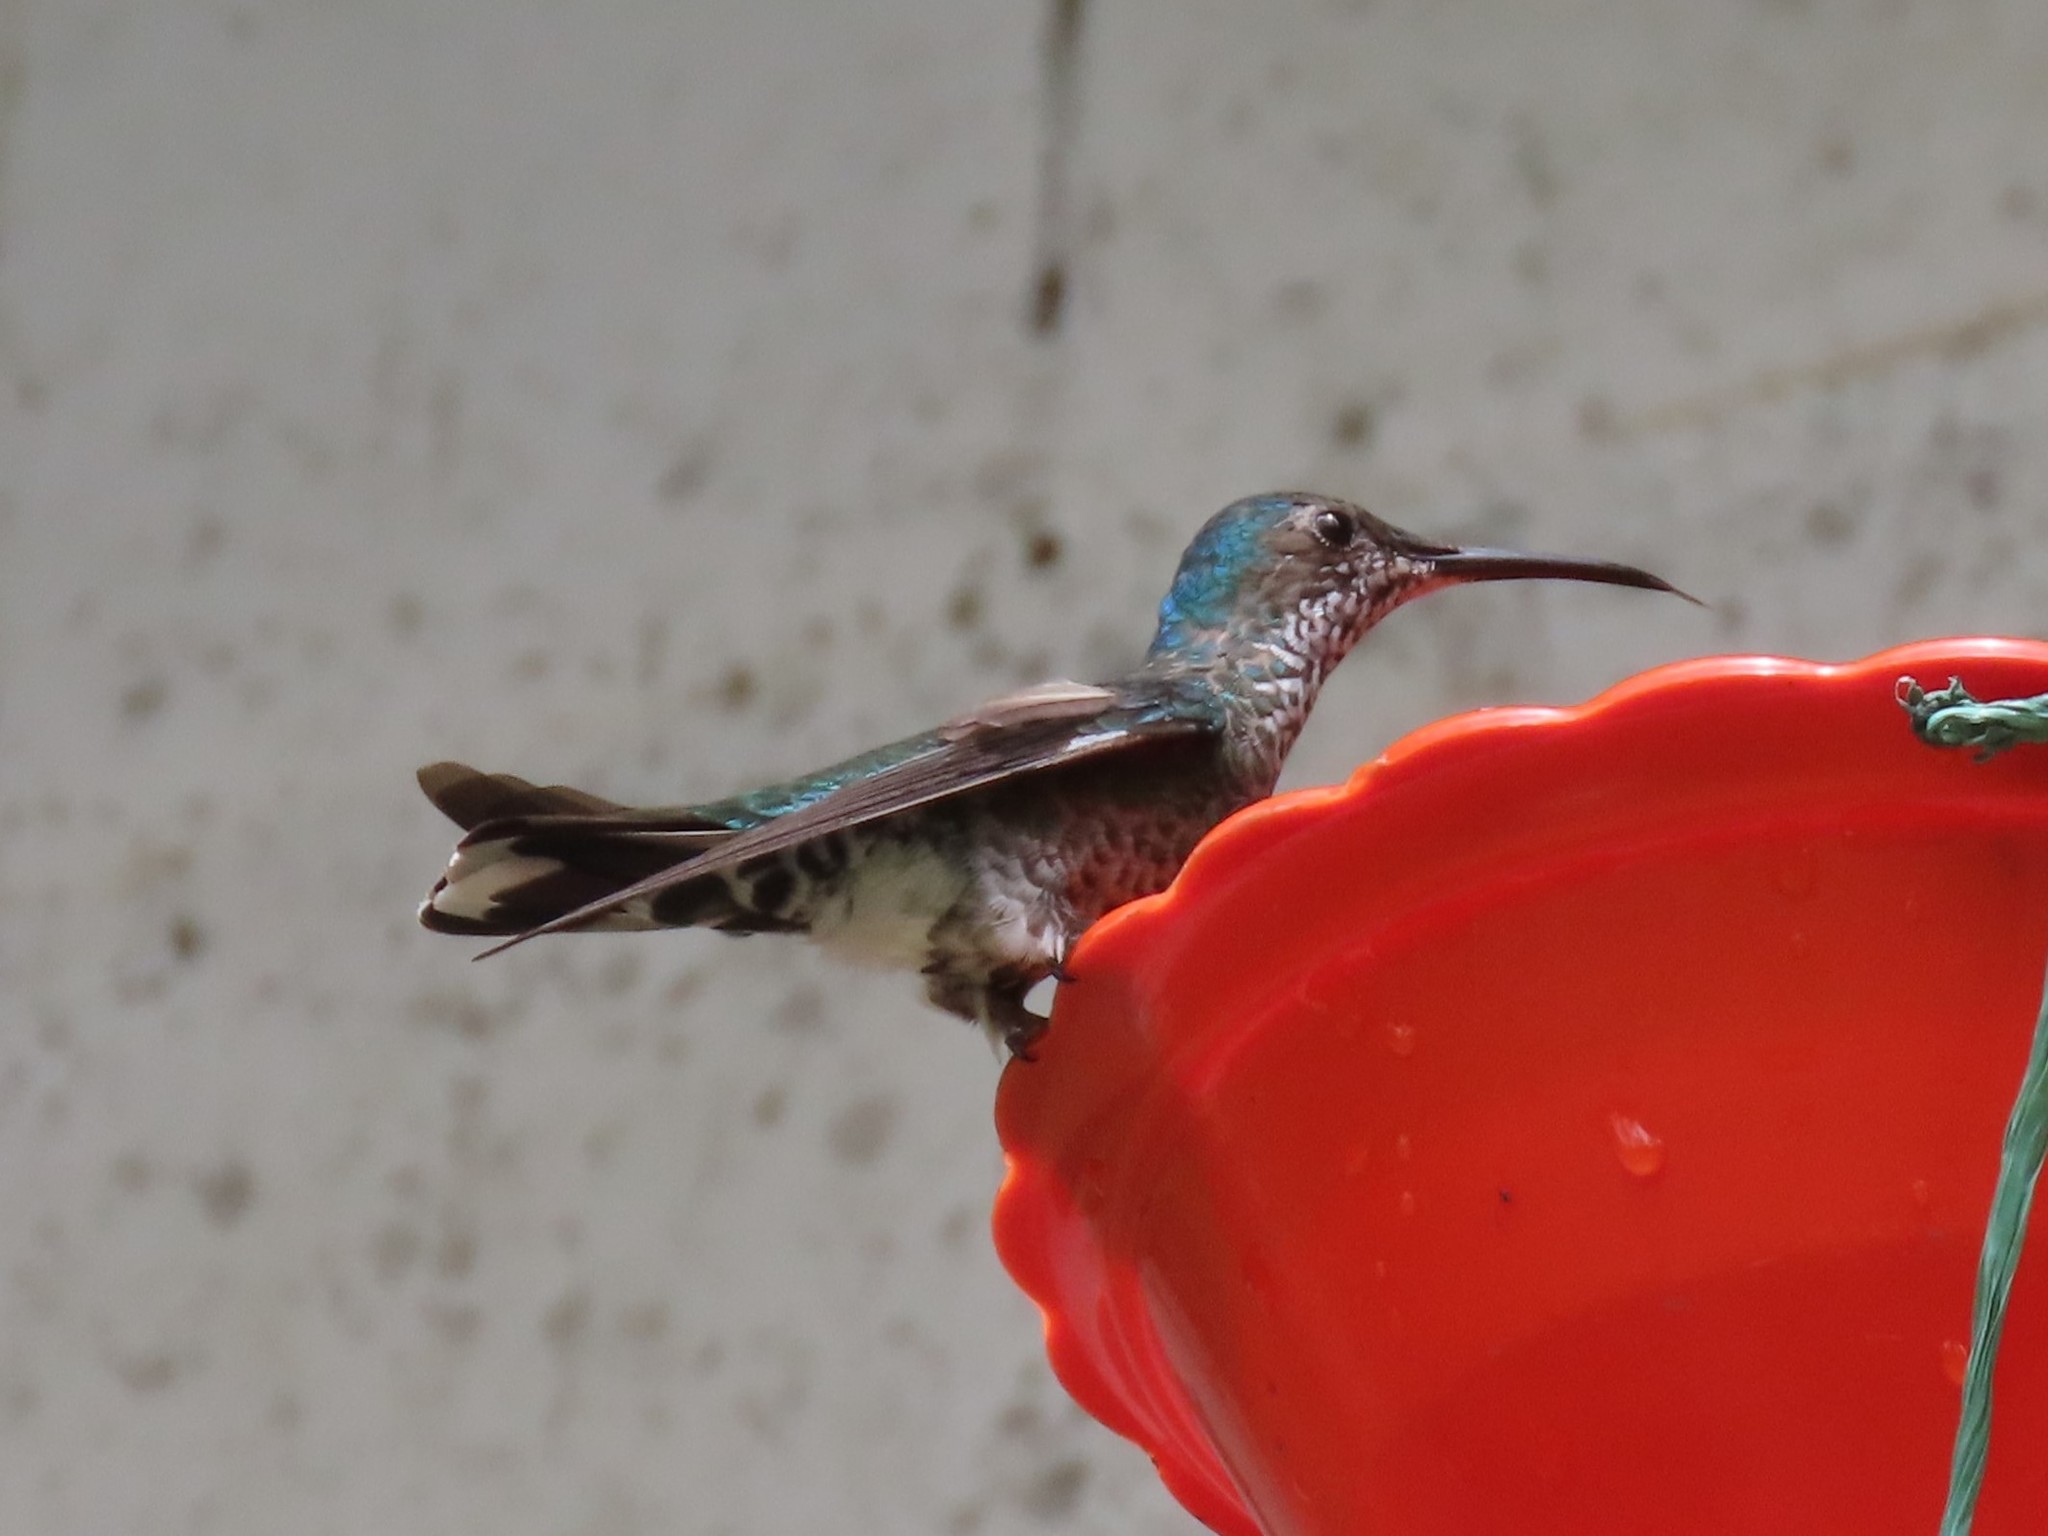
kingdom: Animalia
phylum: Chordata
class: Aves
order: Apodiformes
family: Trochilidae
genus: Florisuga
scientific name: Florisuga mellivora
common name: White-necked jacobin
